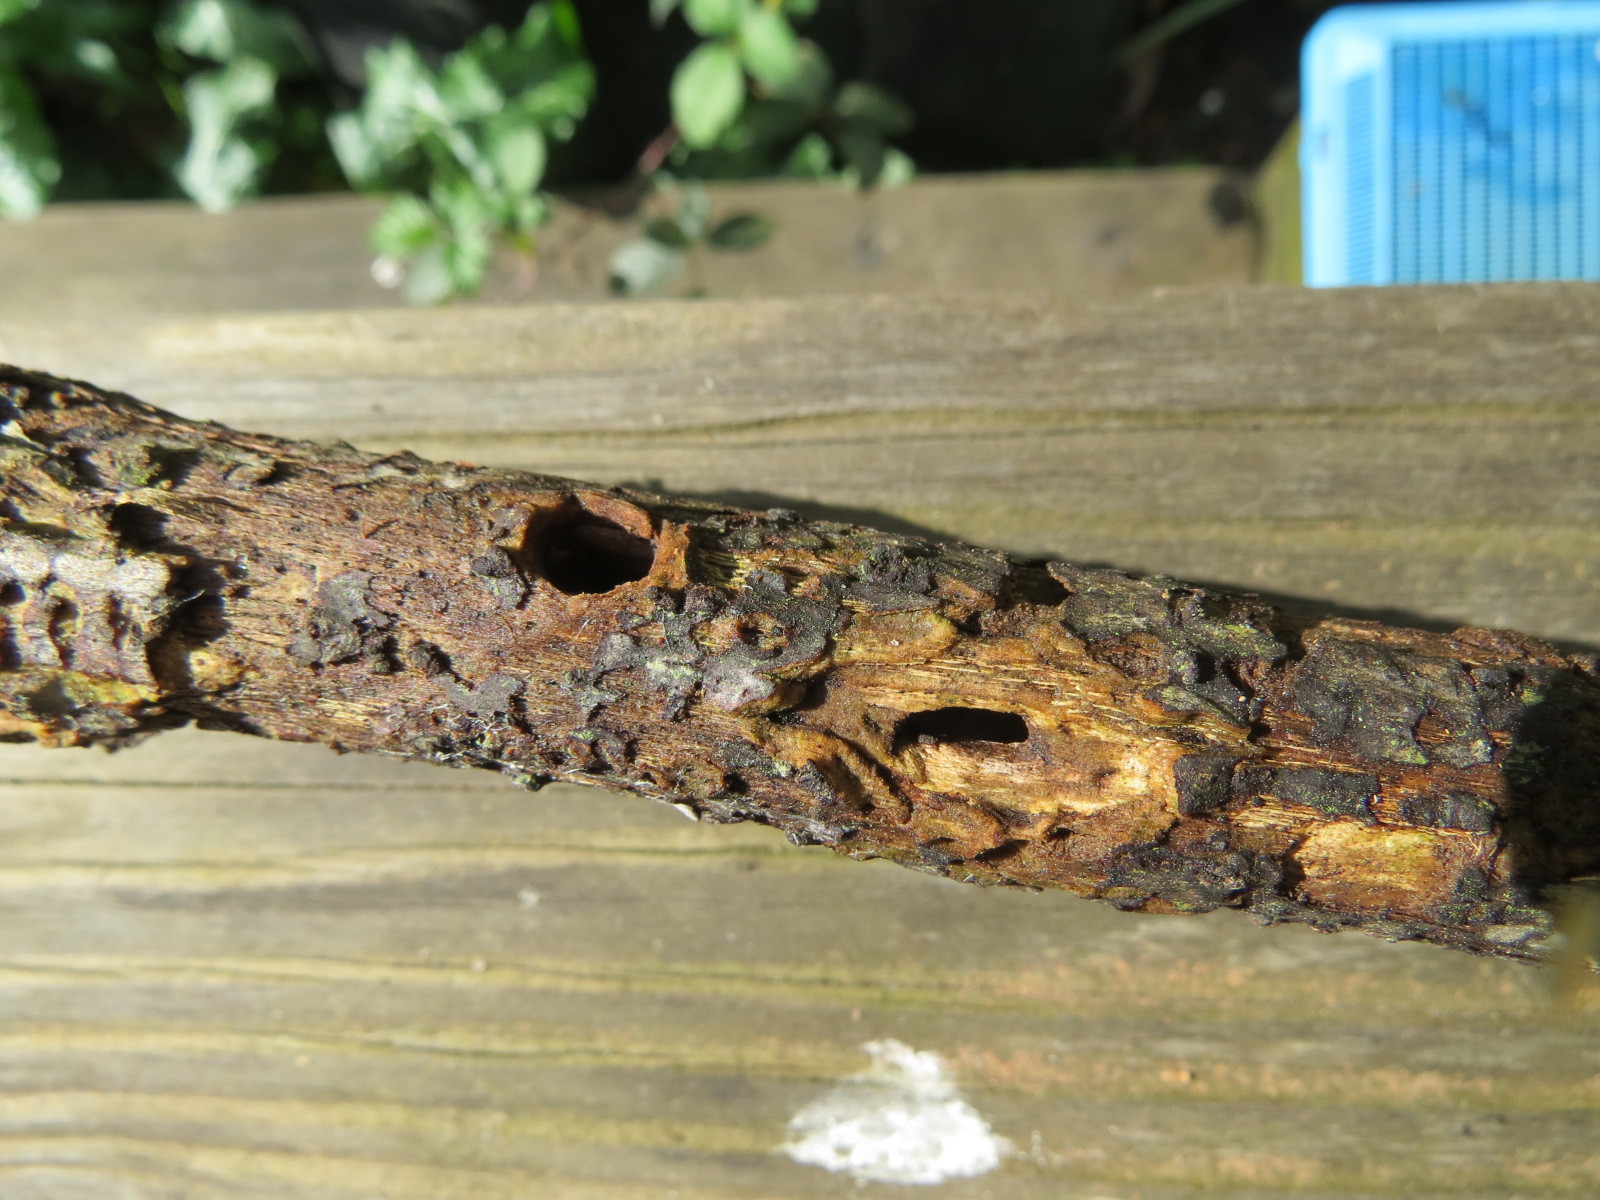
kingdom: Animalia
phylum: Chordata
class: Aves
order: Piciformes
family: Picidae
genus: Dryobates
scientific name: Dryobates pubescens
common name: Downy woodpecker
